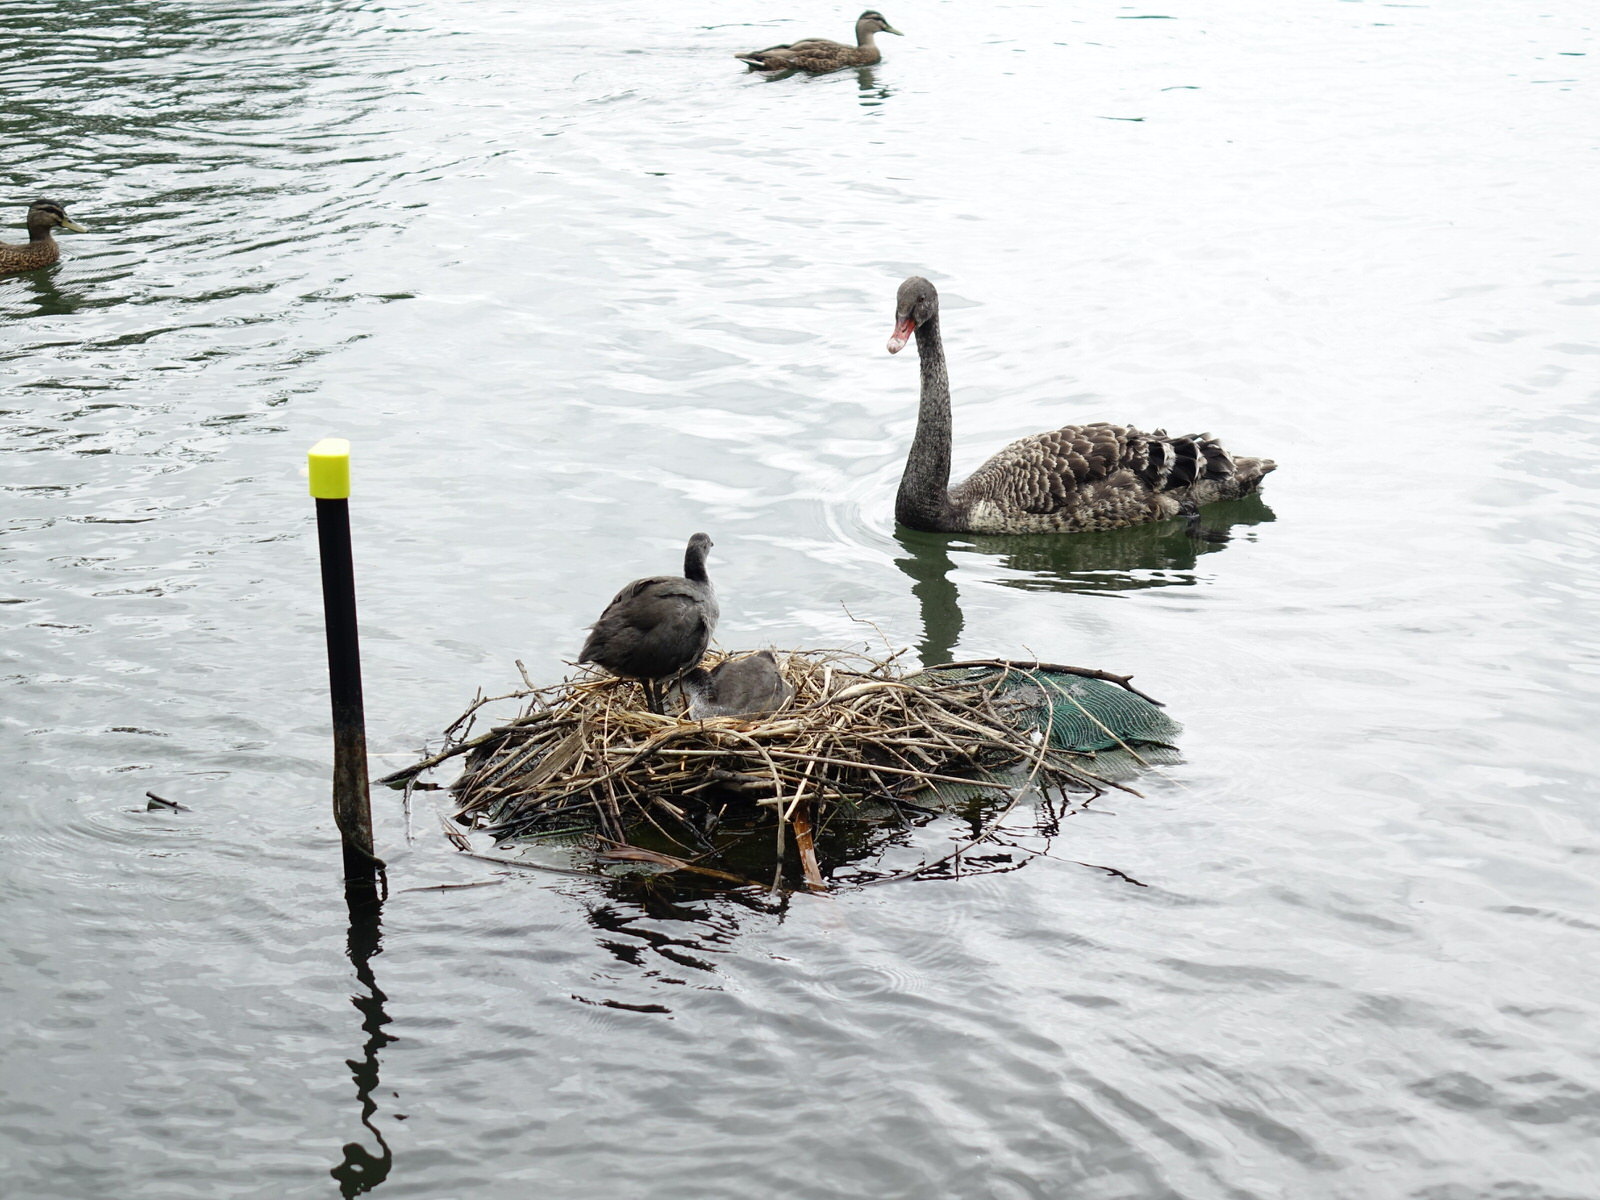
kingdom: Animalia
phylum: Chordata
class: Aves
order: Gruiformes
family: Rallidae
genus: Fulica
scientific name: Fulica atra
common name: Eurasian coot
